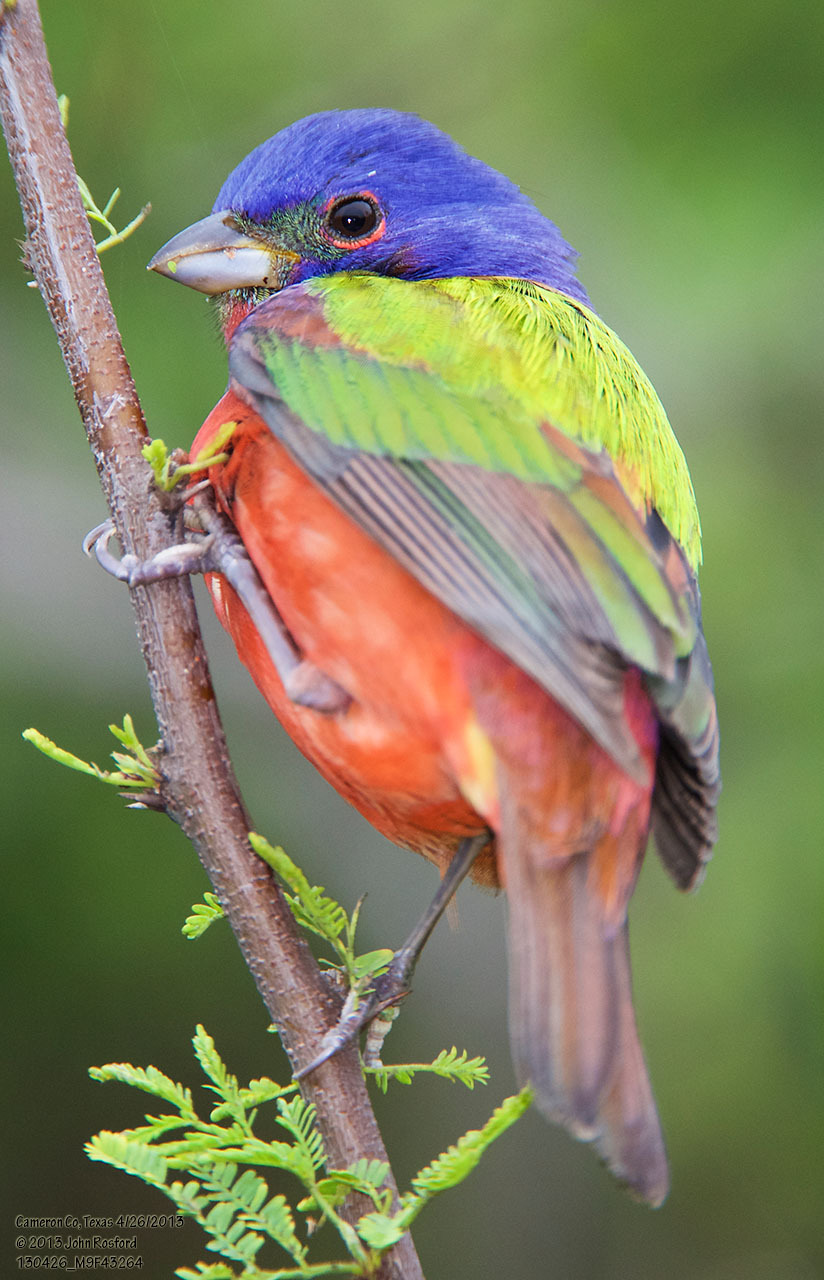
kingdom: Animalia
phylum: Chordata
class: Aves
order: Passeriformes
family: Cardinalidae
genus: Passerina
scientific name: Passerina ciris
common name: Painted bunting
